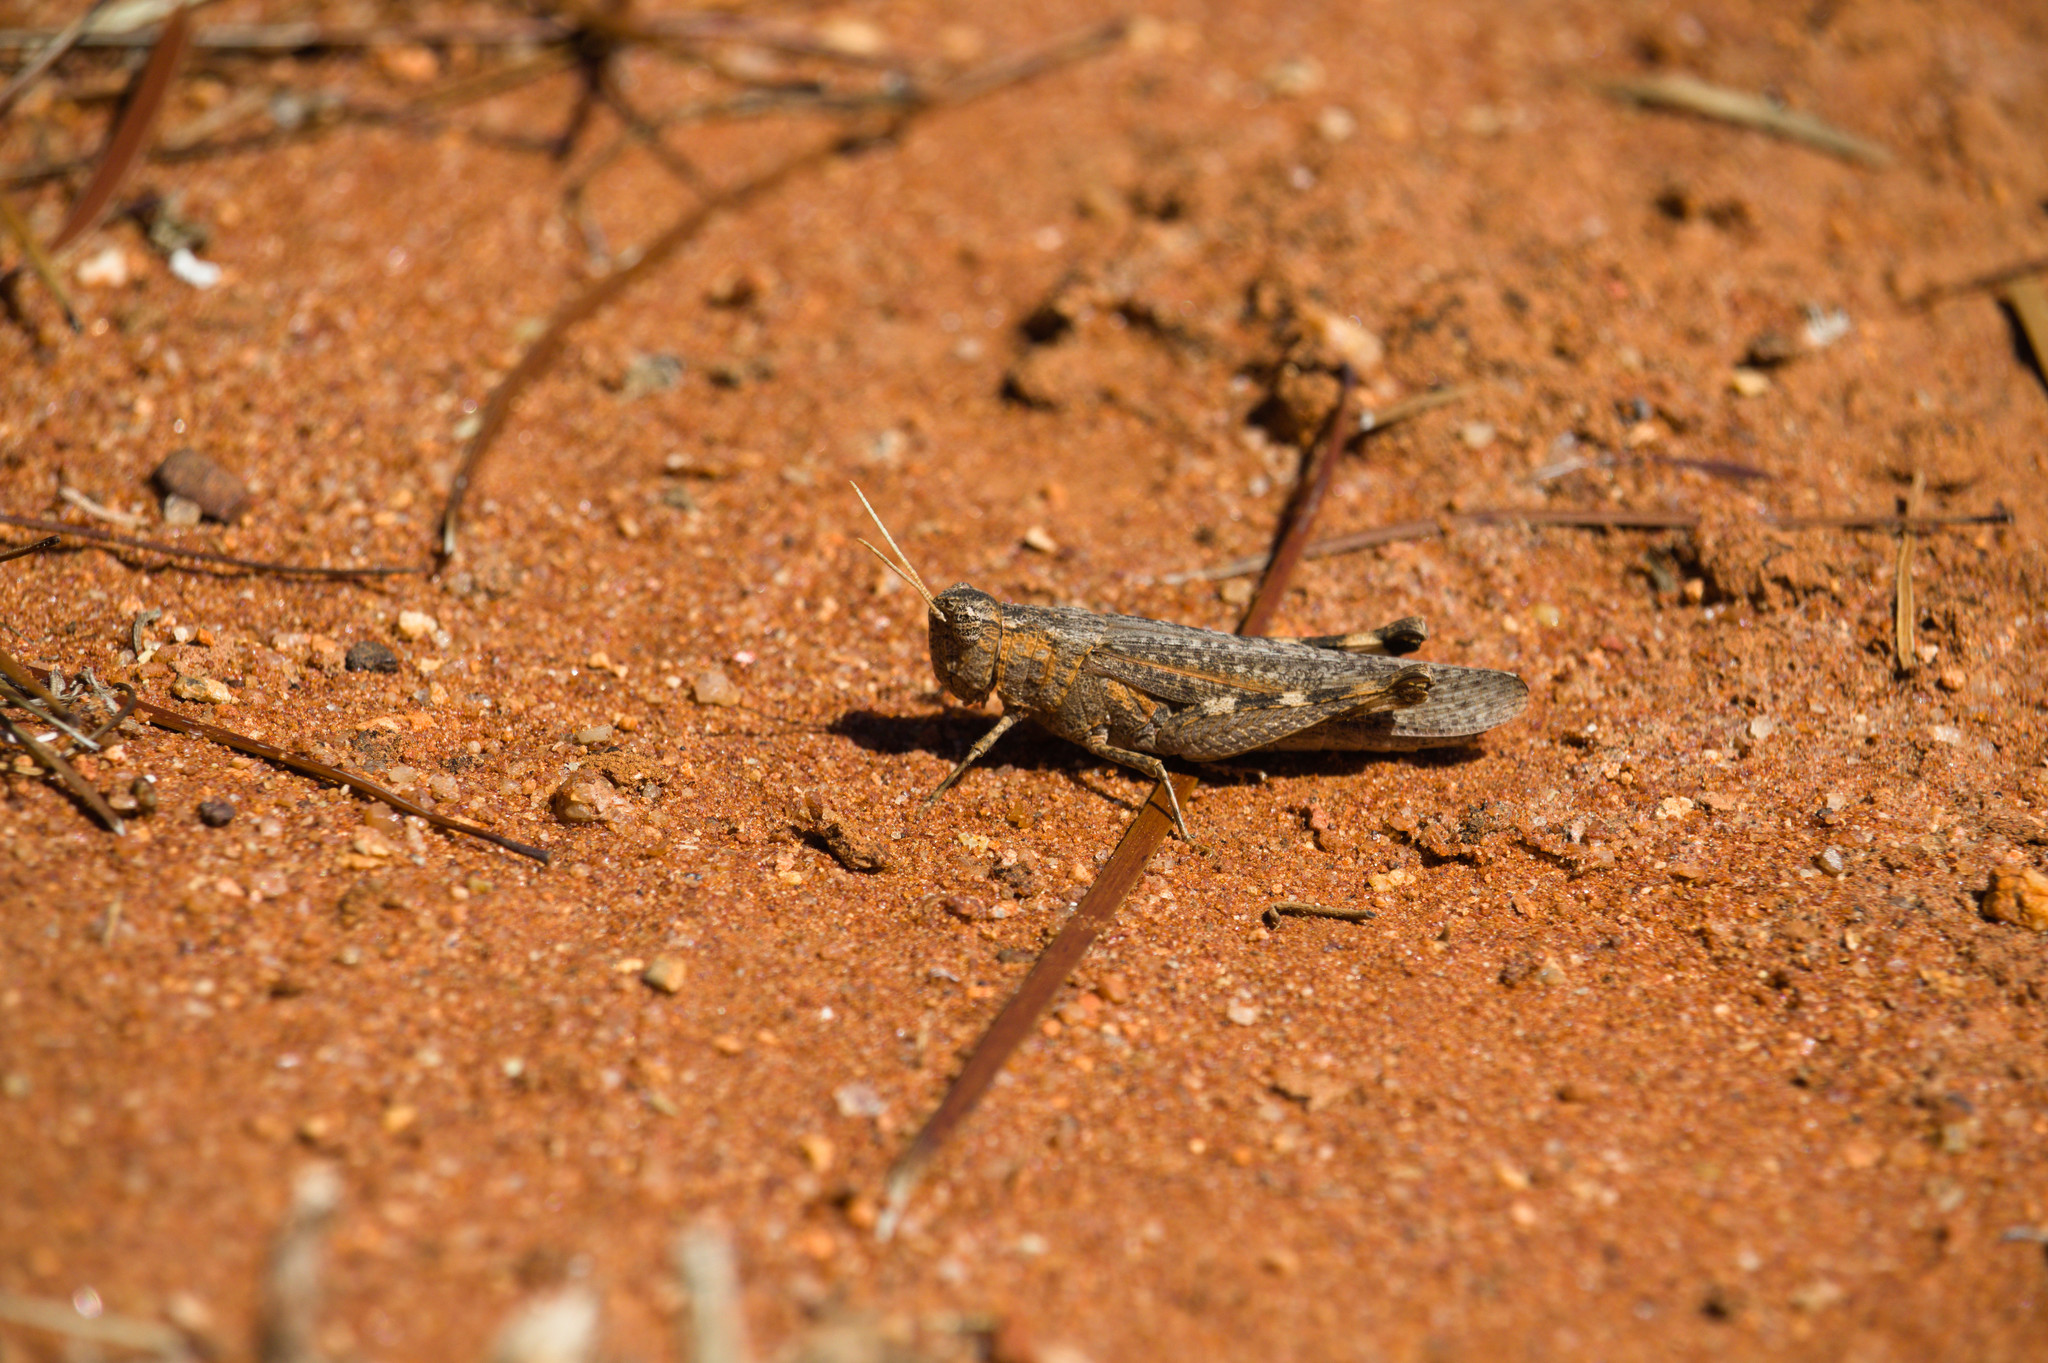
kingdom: Animalia
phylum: Arthropoda
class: Insecta
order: Orthoptera
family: Acrididae
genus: Desertaria
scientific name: Desertaria fasciata
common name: Striped ungee-gungee
